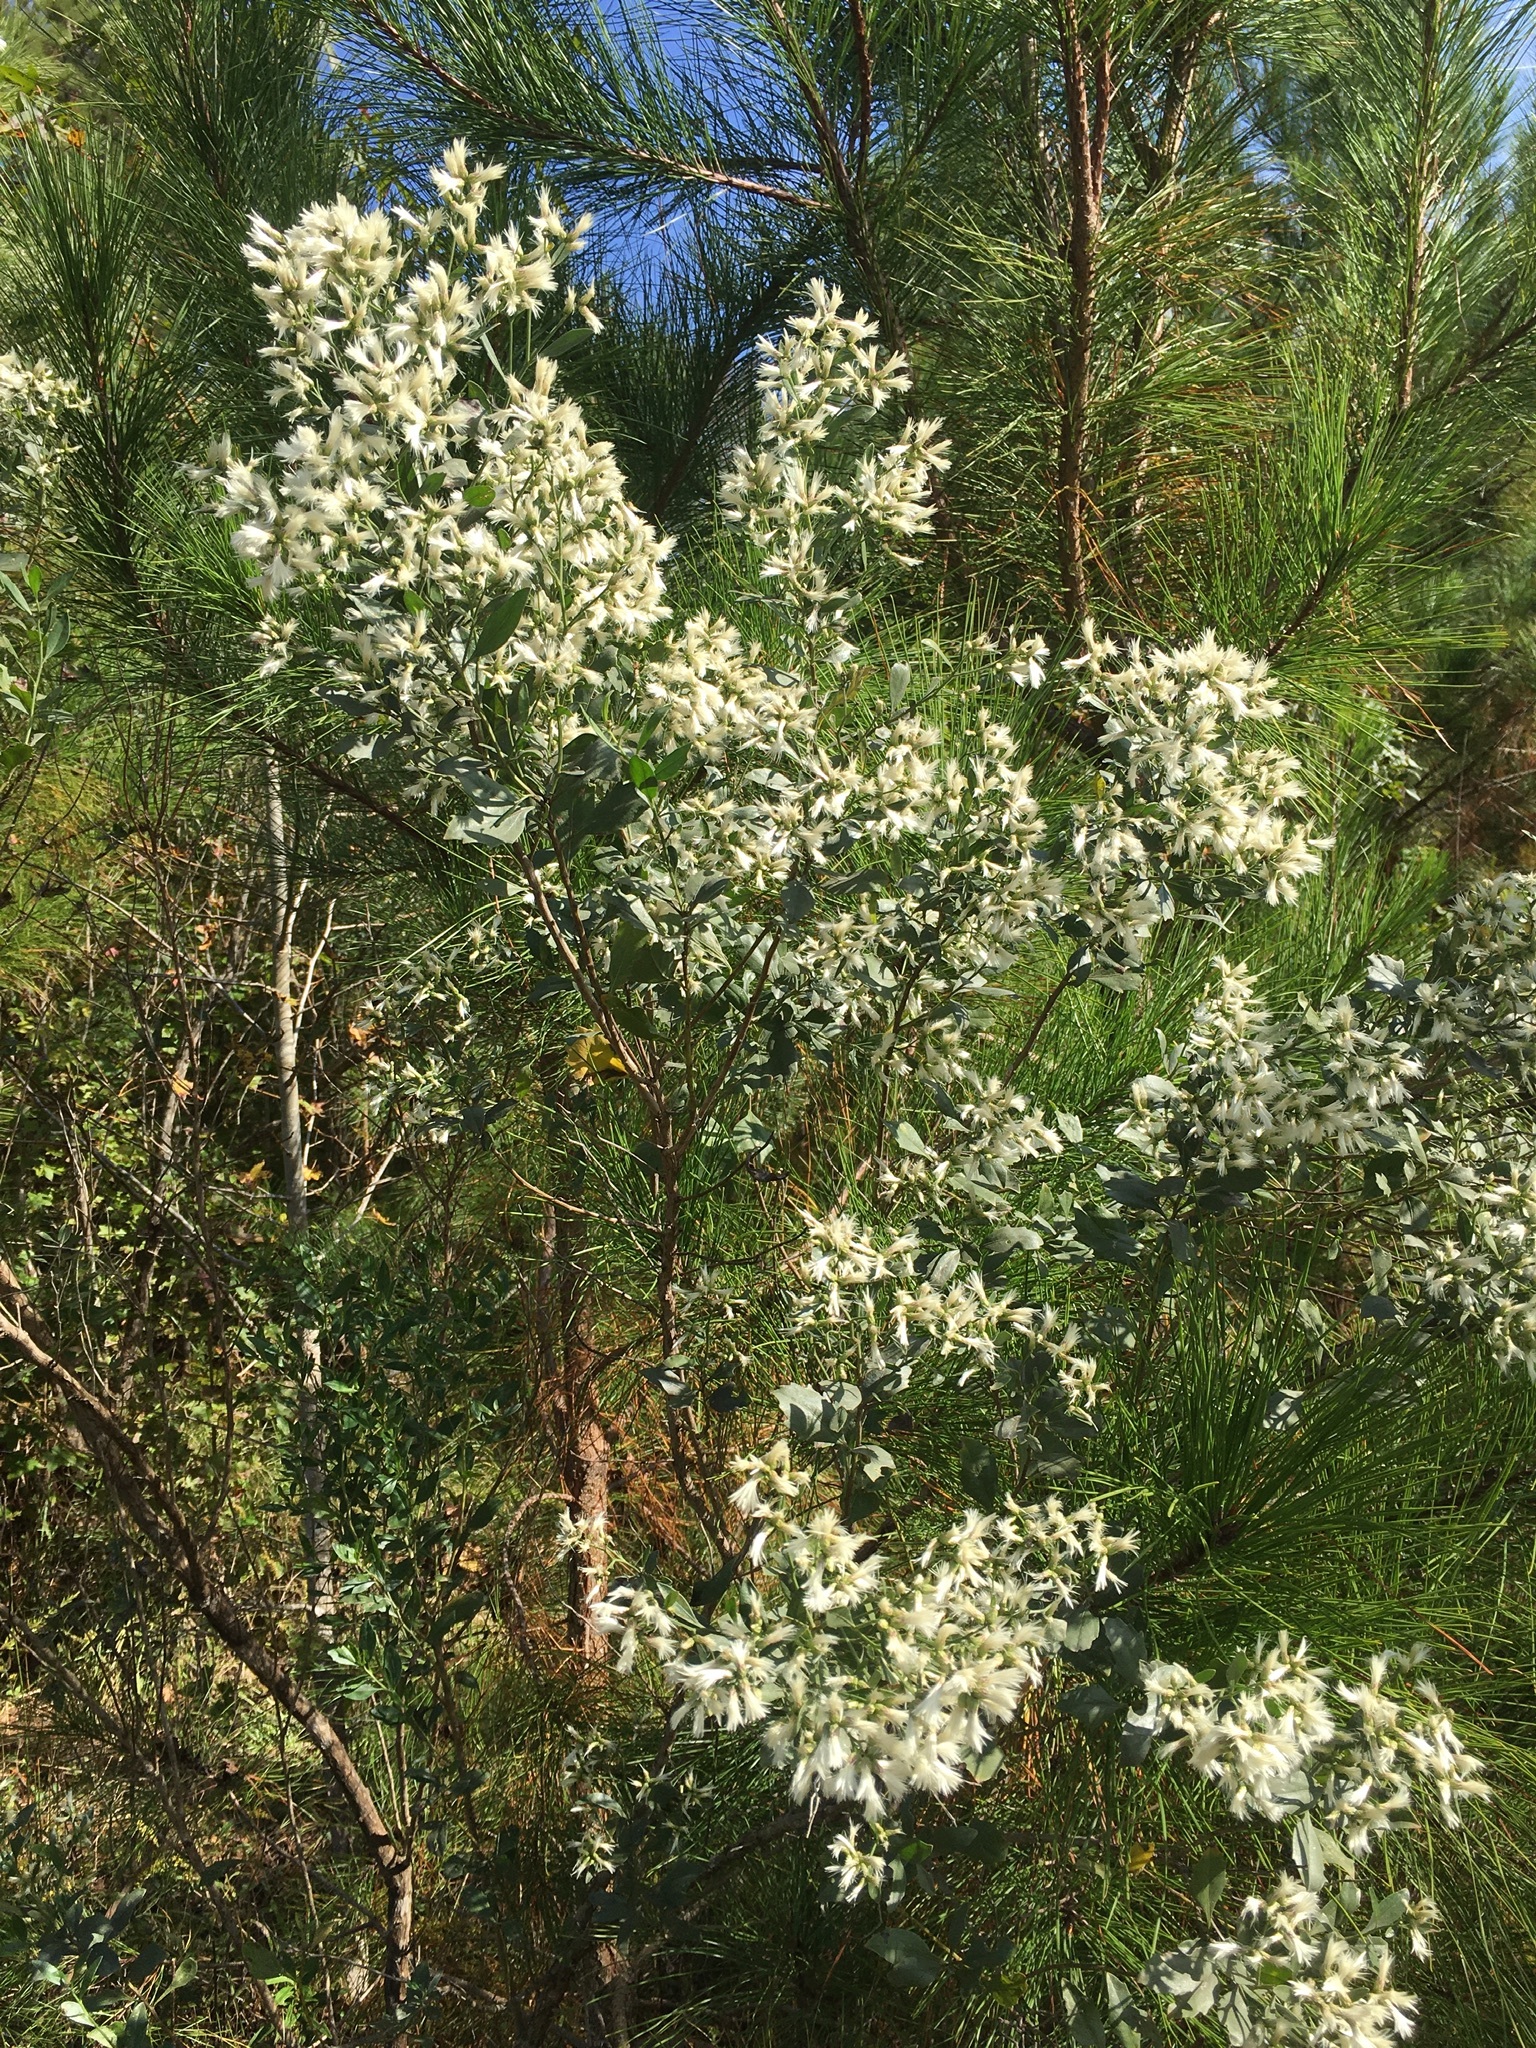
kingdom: Plantae
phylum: Tracheophyta
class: Magnoliopsida
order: Asterales
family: Asteraceae
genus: Baccharis
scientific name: Baccharis halimifolia
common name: Eastern baccharis
